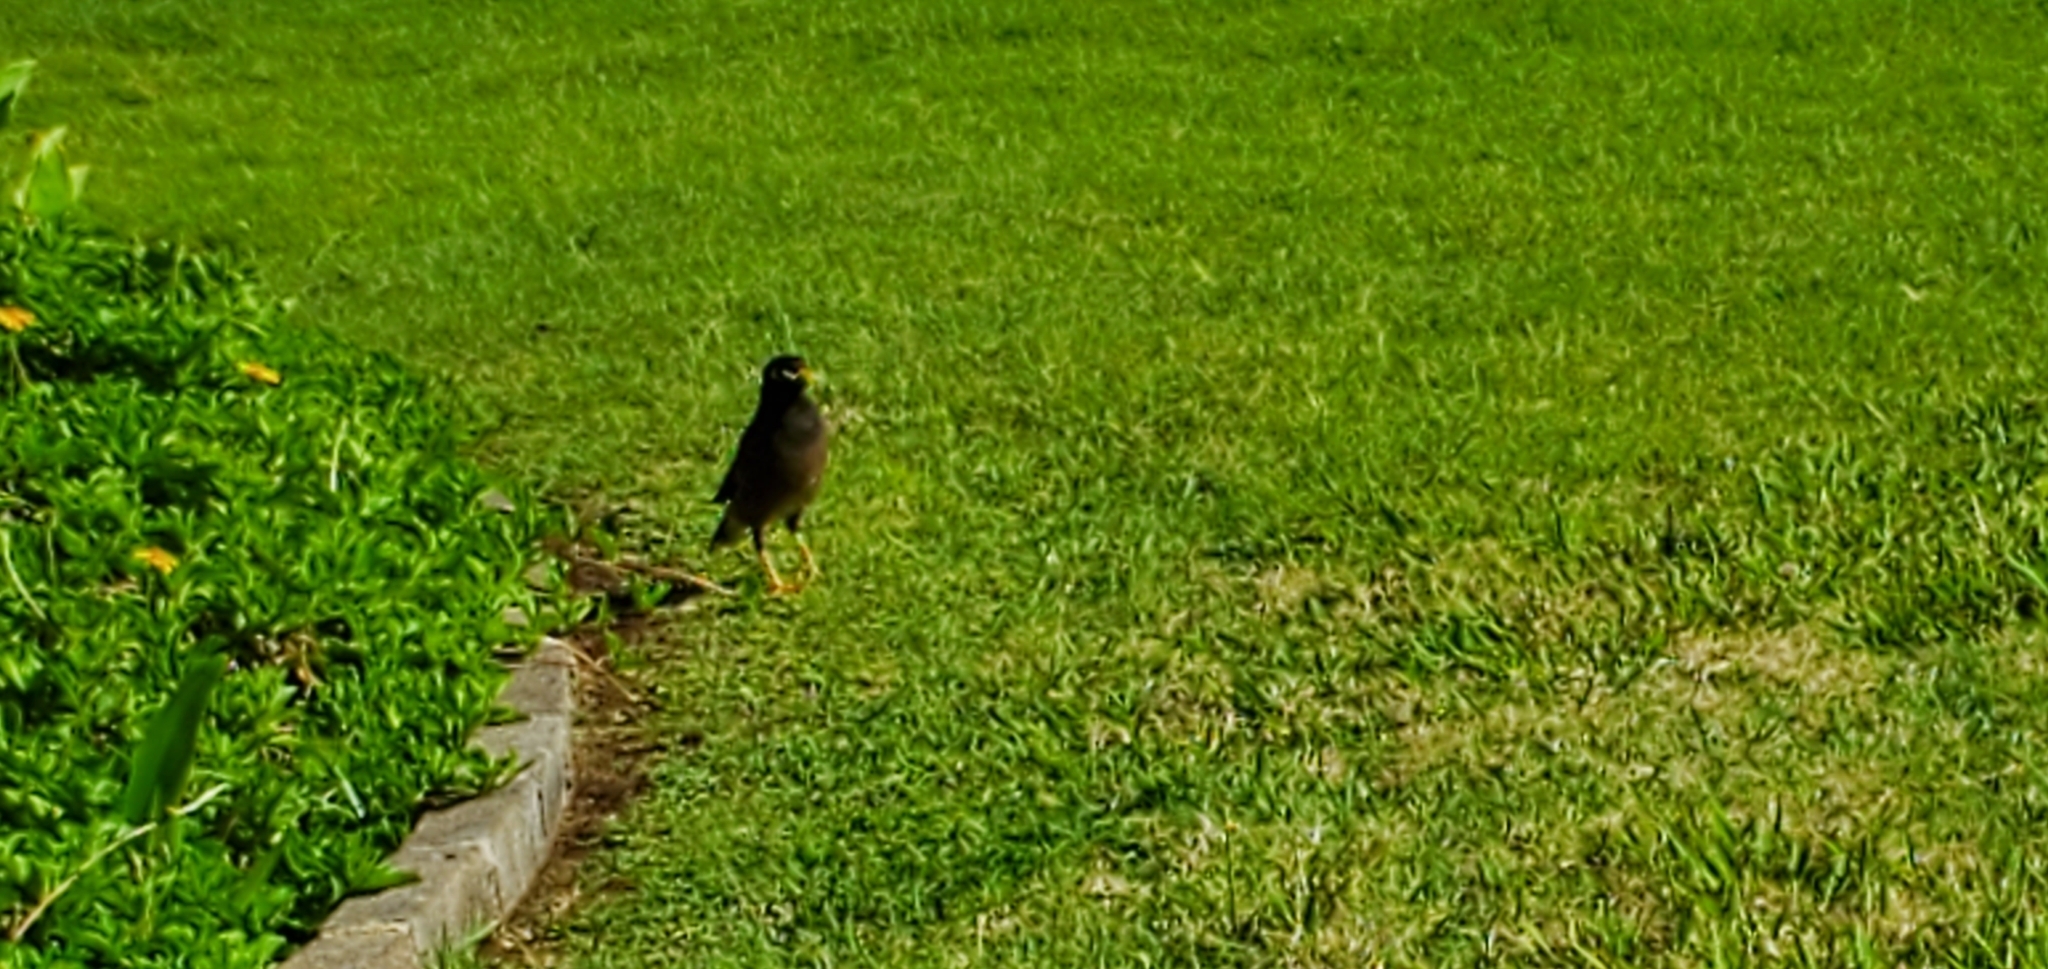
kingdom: Animalia
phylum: Chordata
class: Aves
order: Passeriformes
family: Sturnidae
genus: Acridotheres
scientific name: Acridotheres tristis
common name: Common myna
